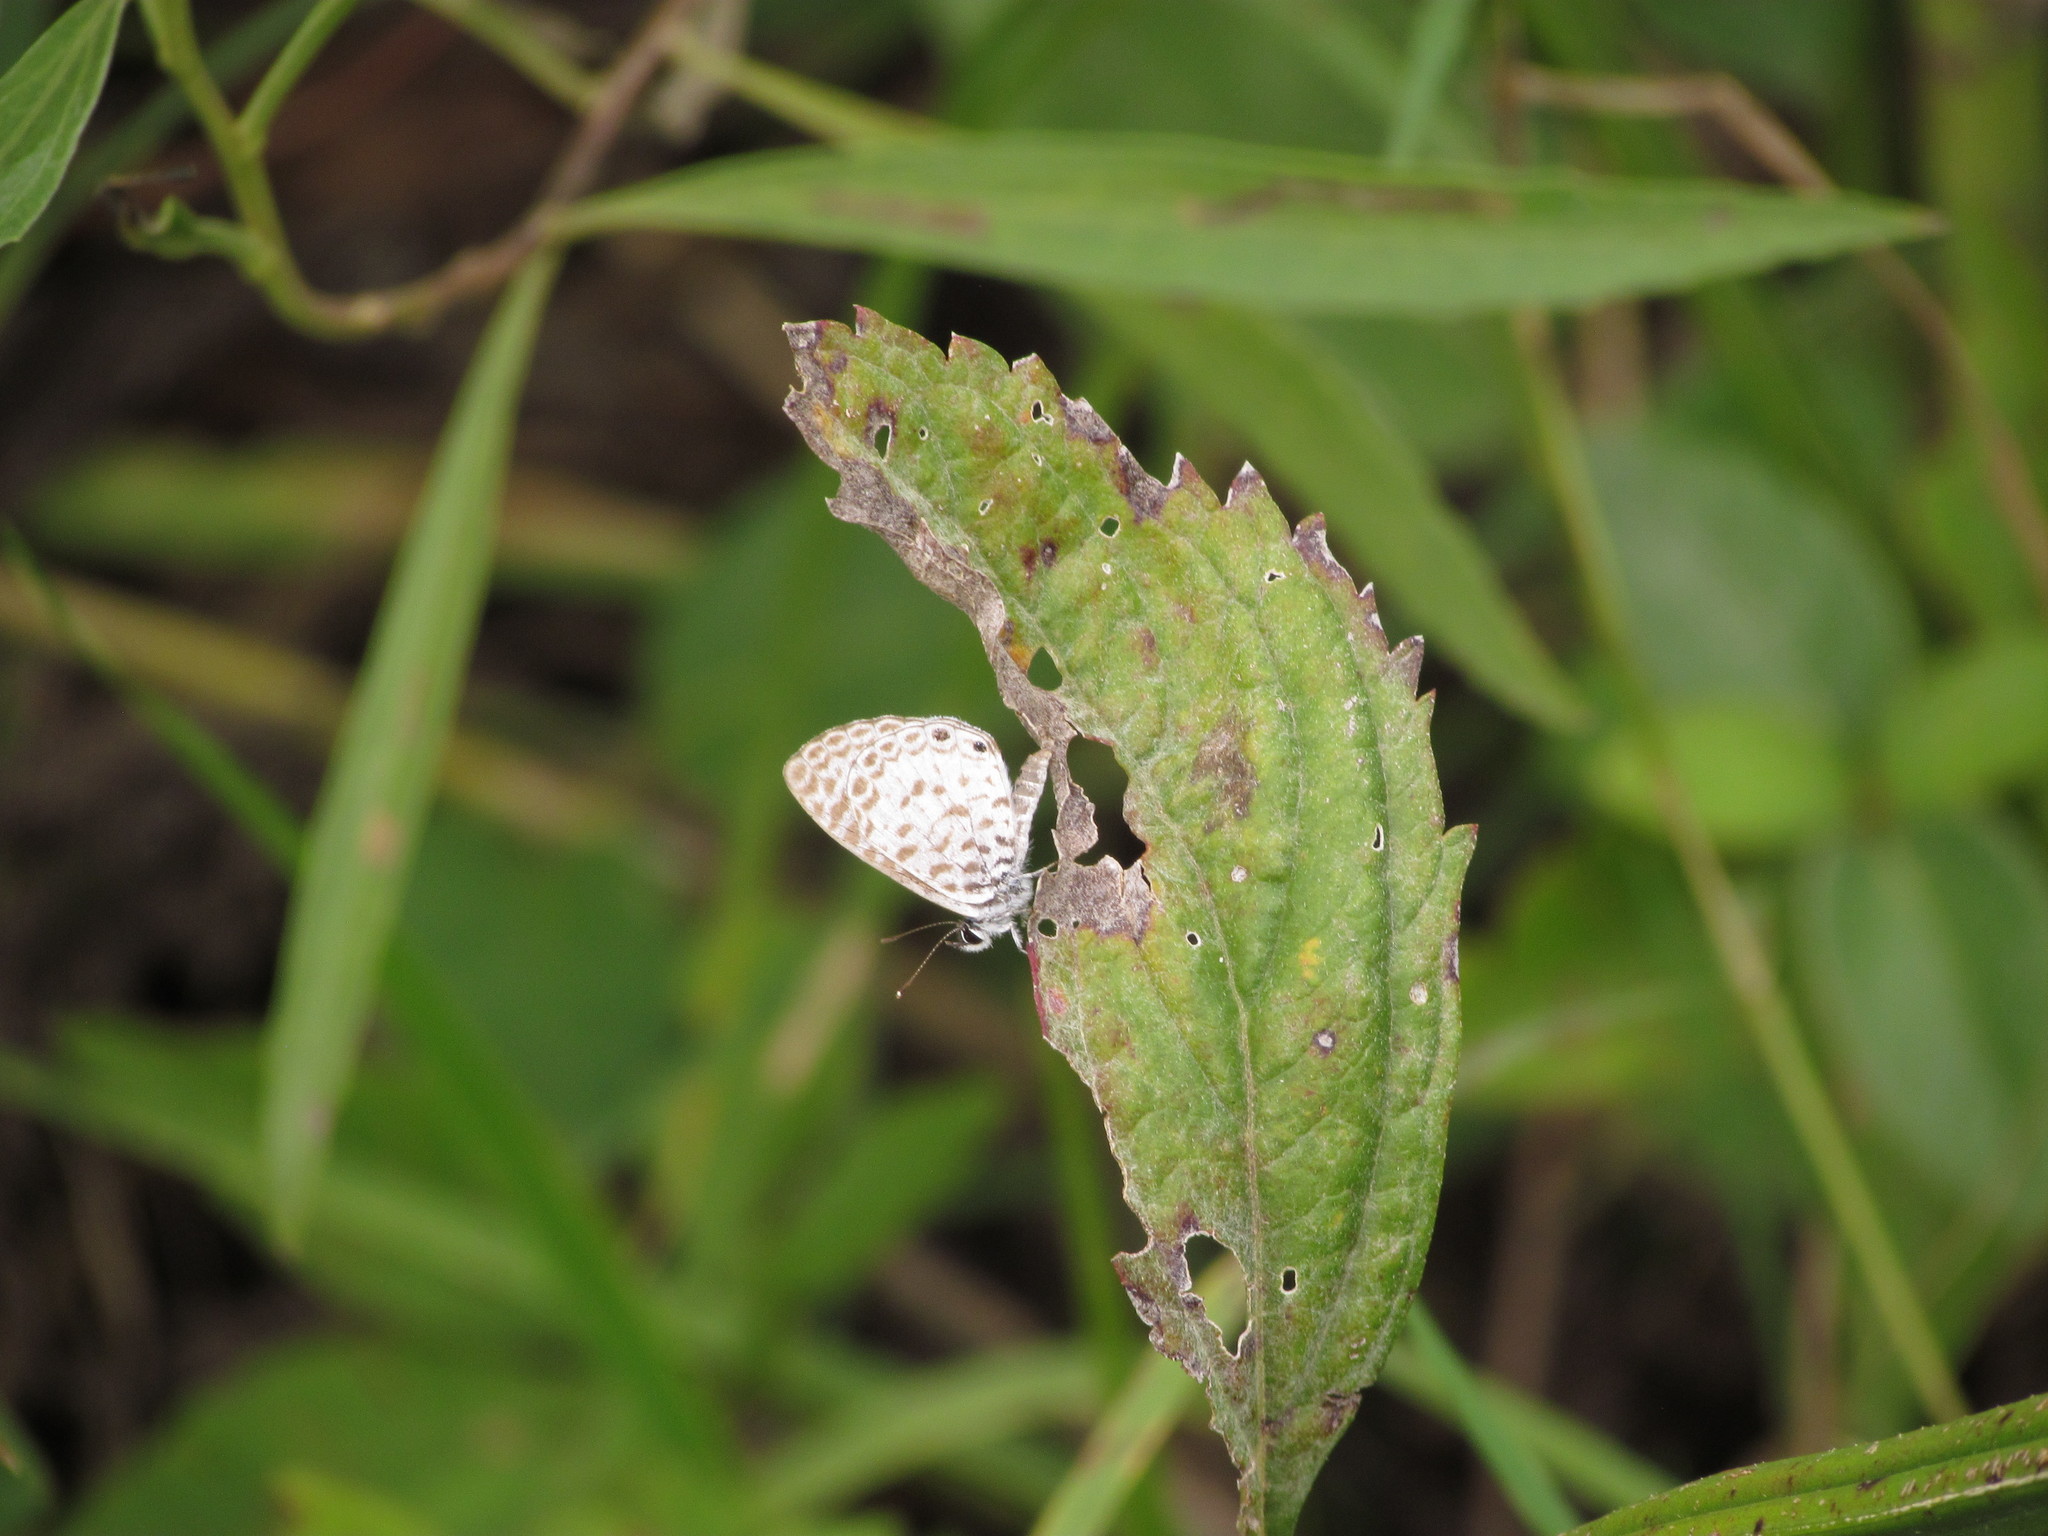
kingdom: Animalia
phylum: Arthropoda
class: Insecta
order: Lepidoptera
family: Lycaenidae
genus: Leptotes
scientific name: Leptotes cassius
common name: Cassius blue
